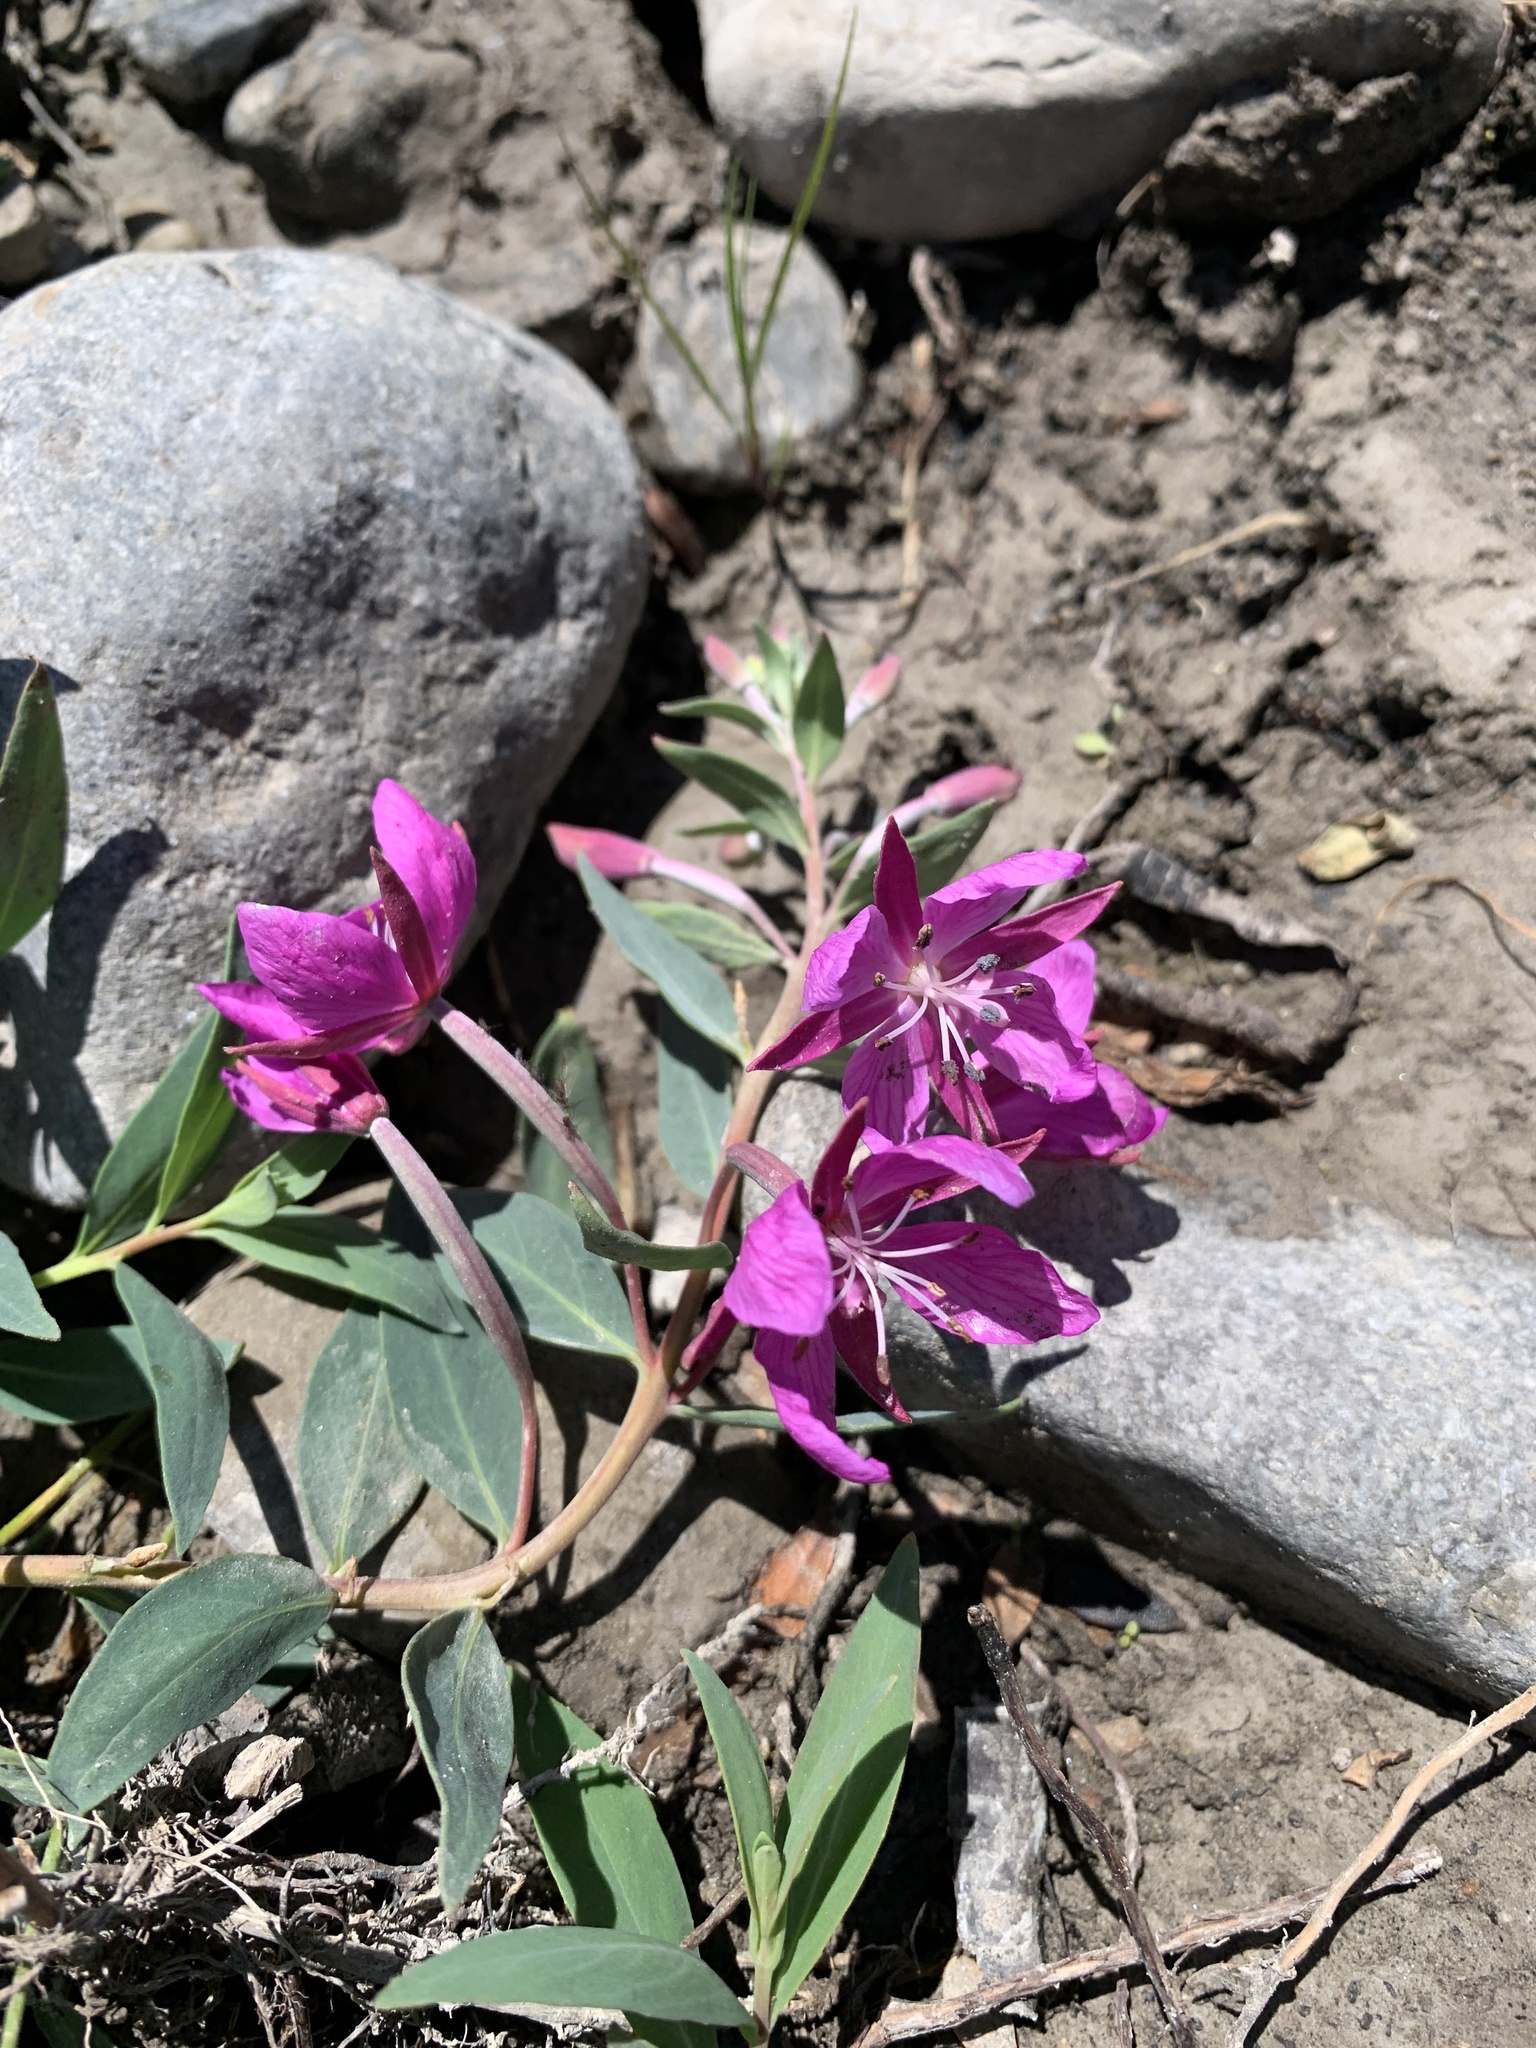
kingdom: Plantae
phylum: Tracheophyta
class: Magnoliopsida
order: Myrtales
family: Onagraceae
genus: Chamaenerion
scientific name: Chamaenerion latifolium
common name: Dwarf fireweed
